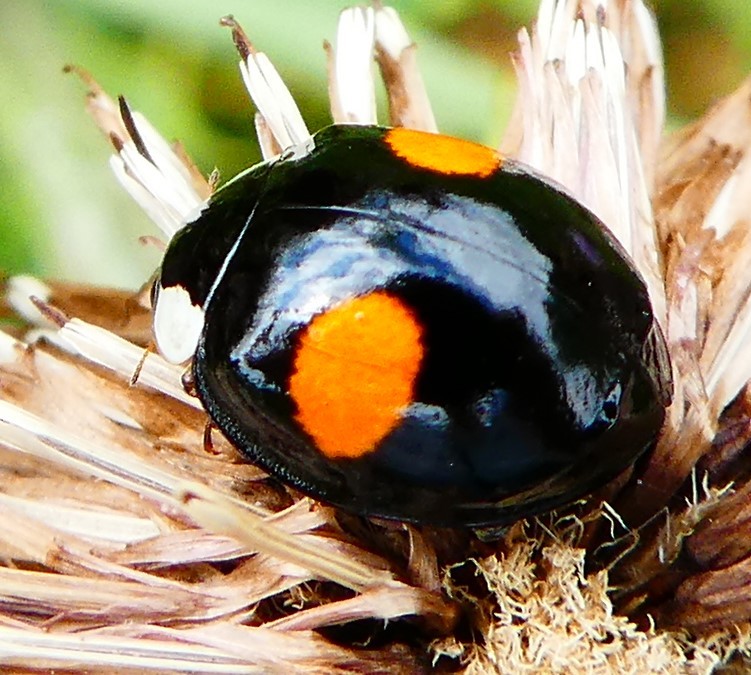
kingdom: Animalia
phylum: Arthropoda
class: Insecta
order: Coleoptera
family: Coccinellidae
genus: Harmonia
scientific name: Harmonia axyridis
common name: Harlequin ladybird
